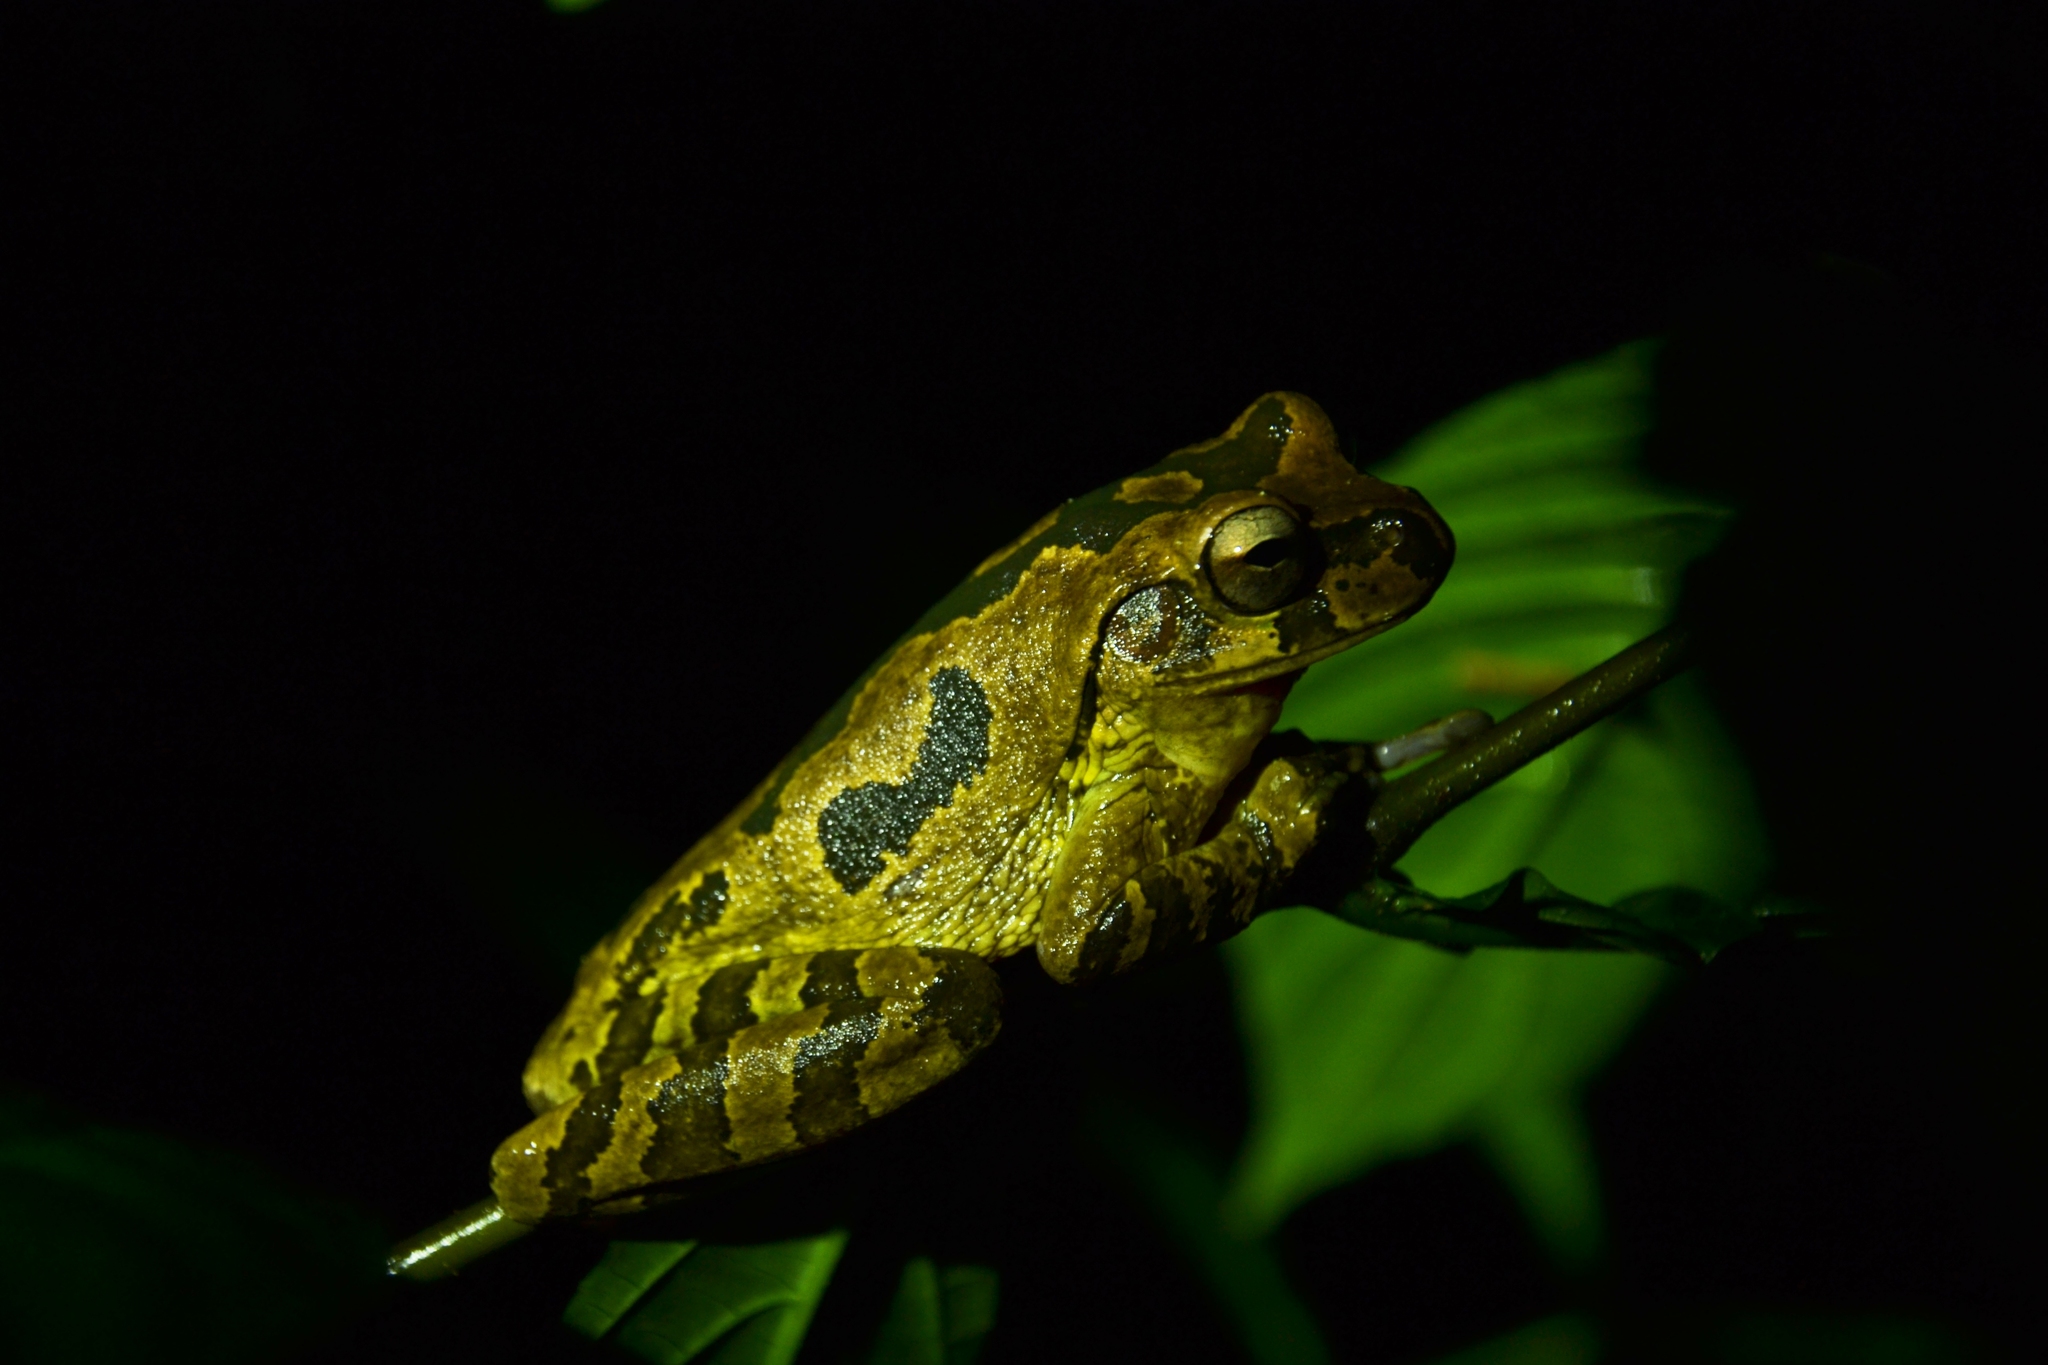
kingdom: Animalia
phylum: Chordata
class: Amphibia
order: Anura
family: Hylidae
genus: Smilisca
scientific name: Smilisca manisorum
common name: Masked tree frog
